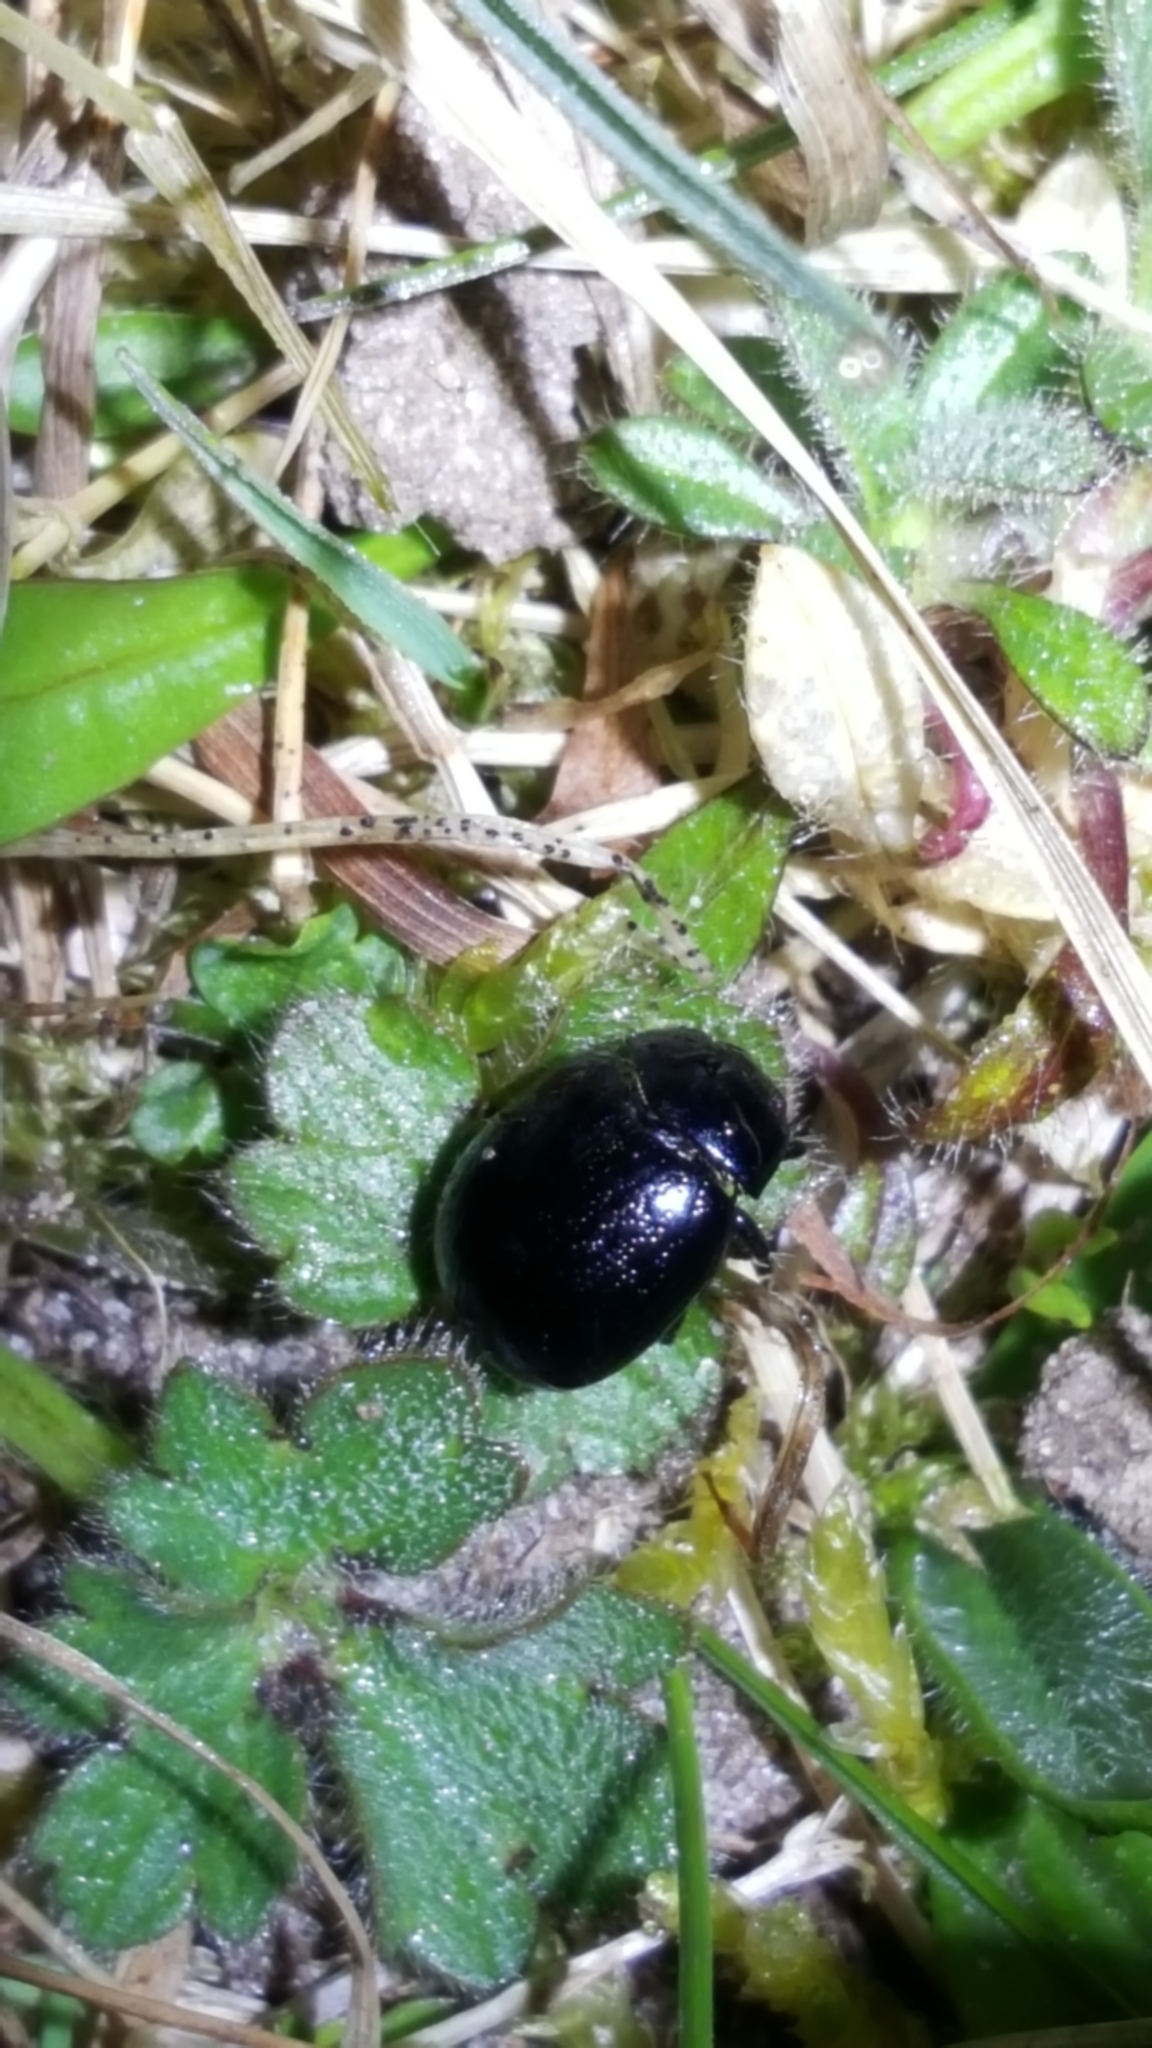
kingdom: Animalia
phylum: Arthropoda
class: Insecta
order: Coleoptera
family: Chrysomelidae
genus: Chrysolina
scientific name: Chrysolina haemoptera
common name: Plantain leaf beetle
